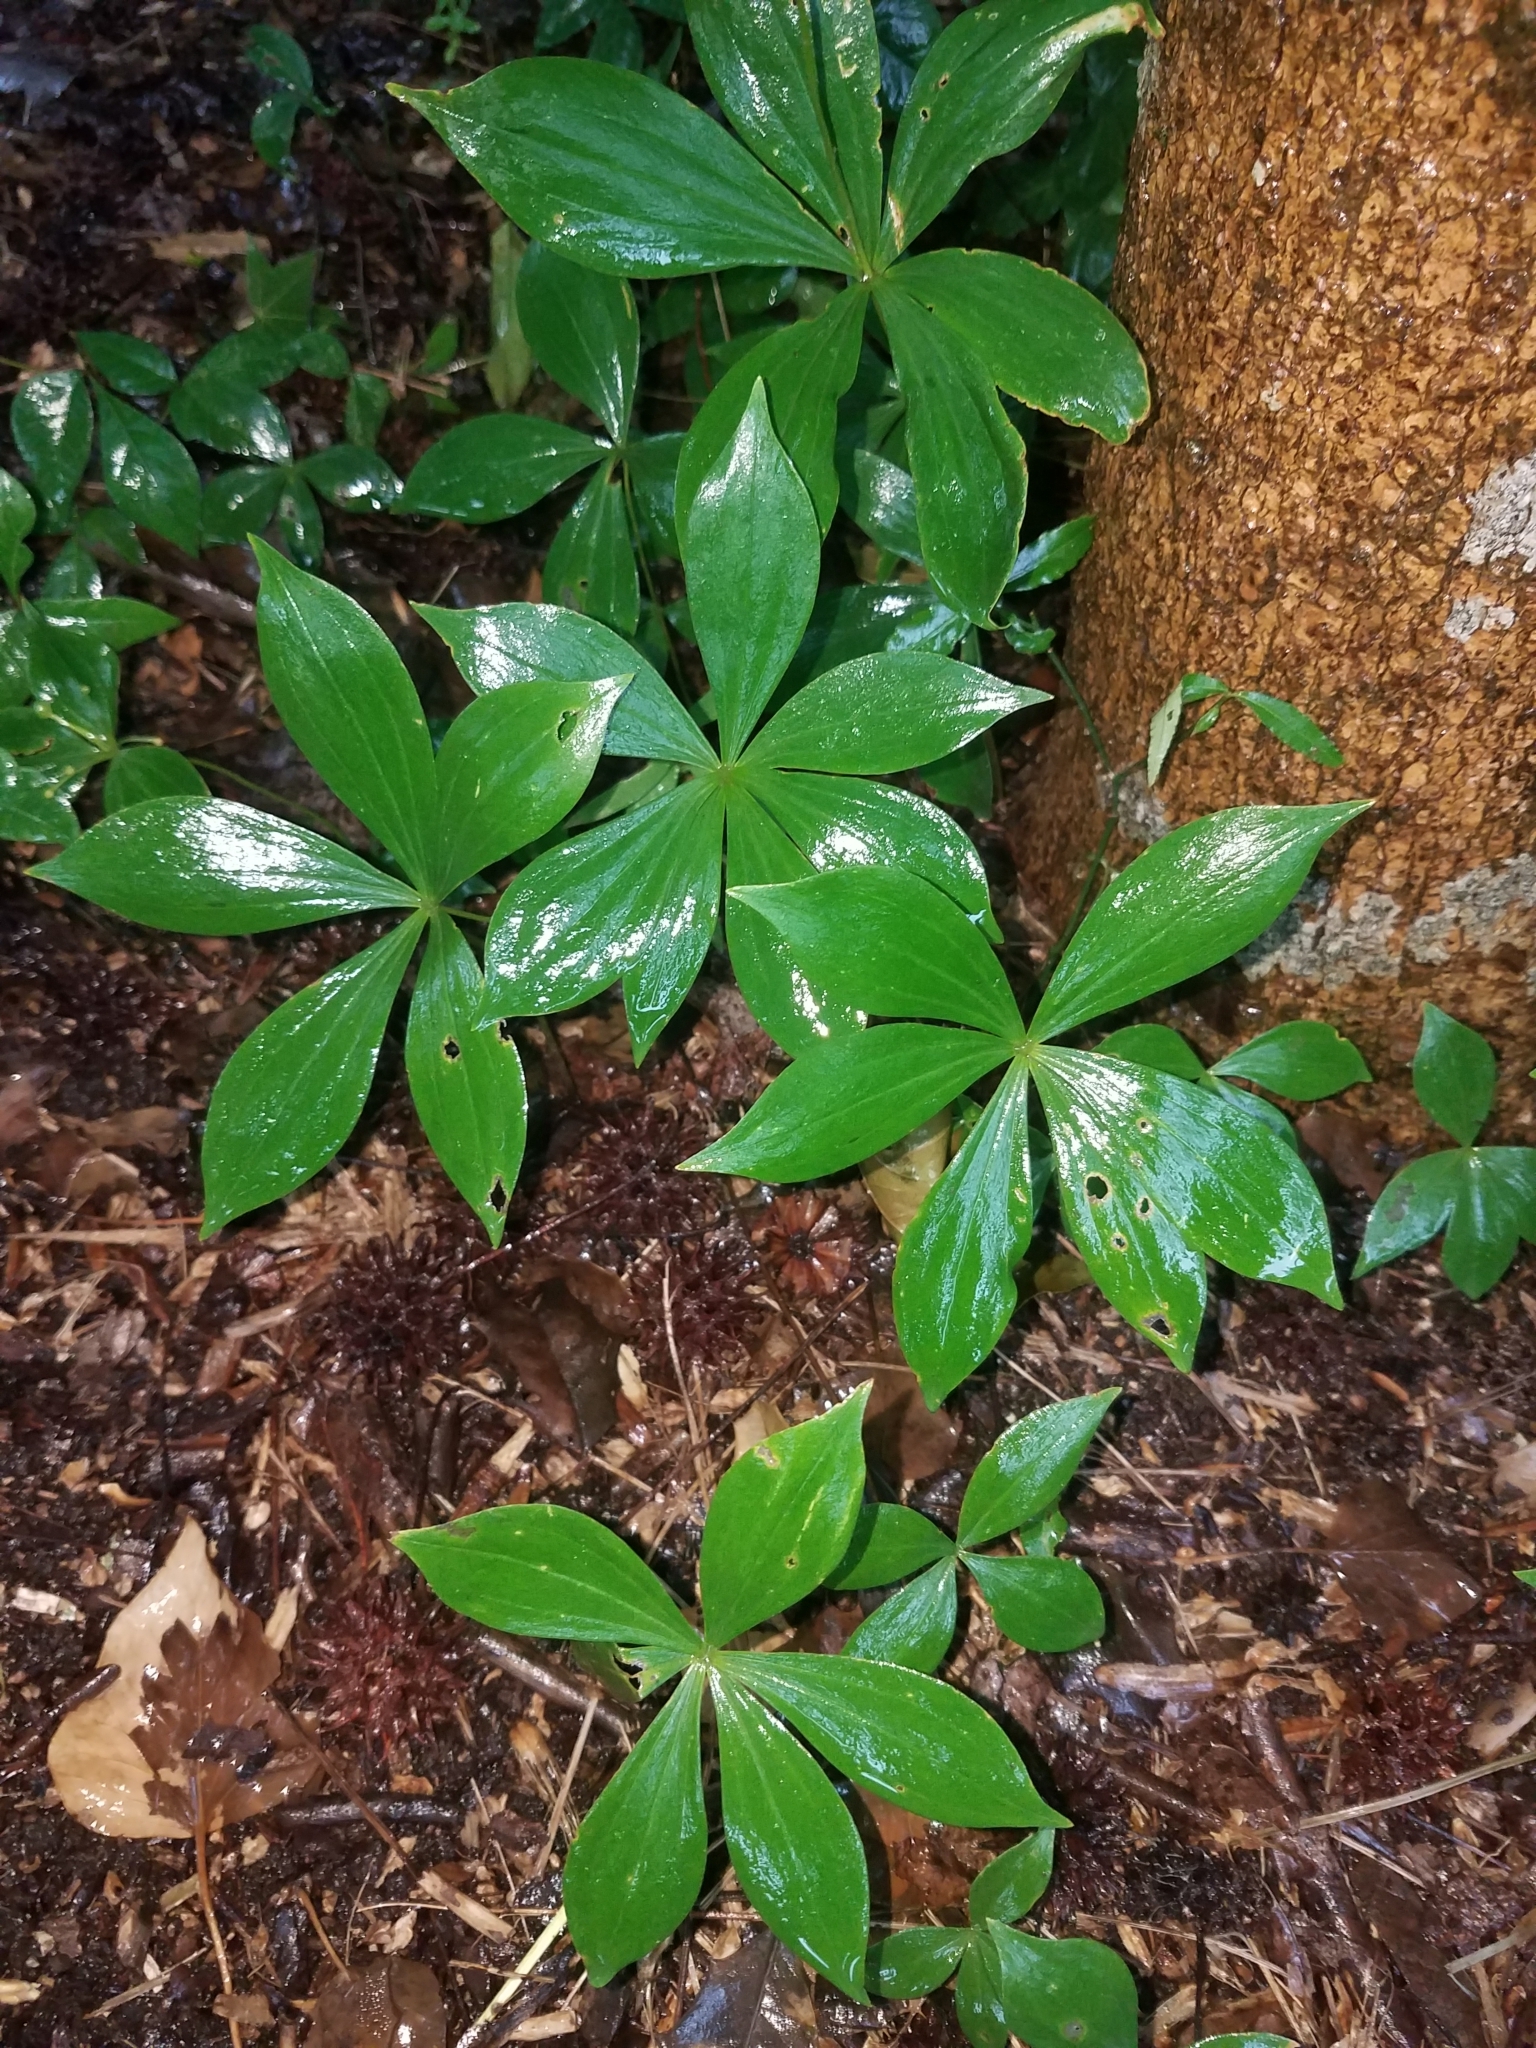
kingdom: Plantae
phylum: Tracheophyta
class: Liliopsida
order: Liliales
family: Liliaceae
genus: Medeola
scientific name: Medeola virginiana
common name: Indian cucumber-root
